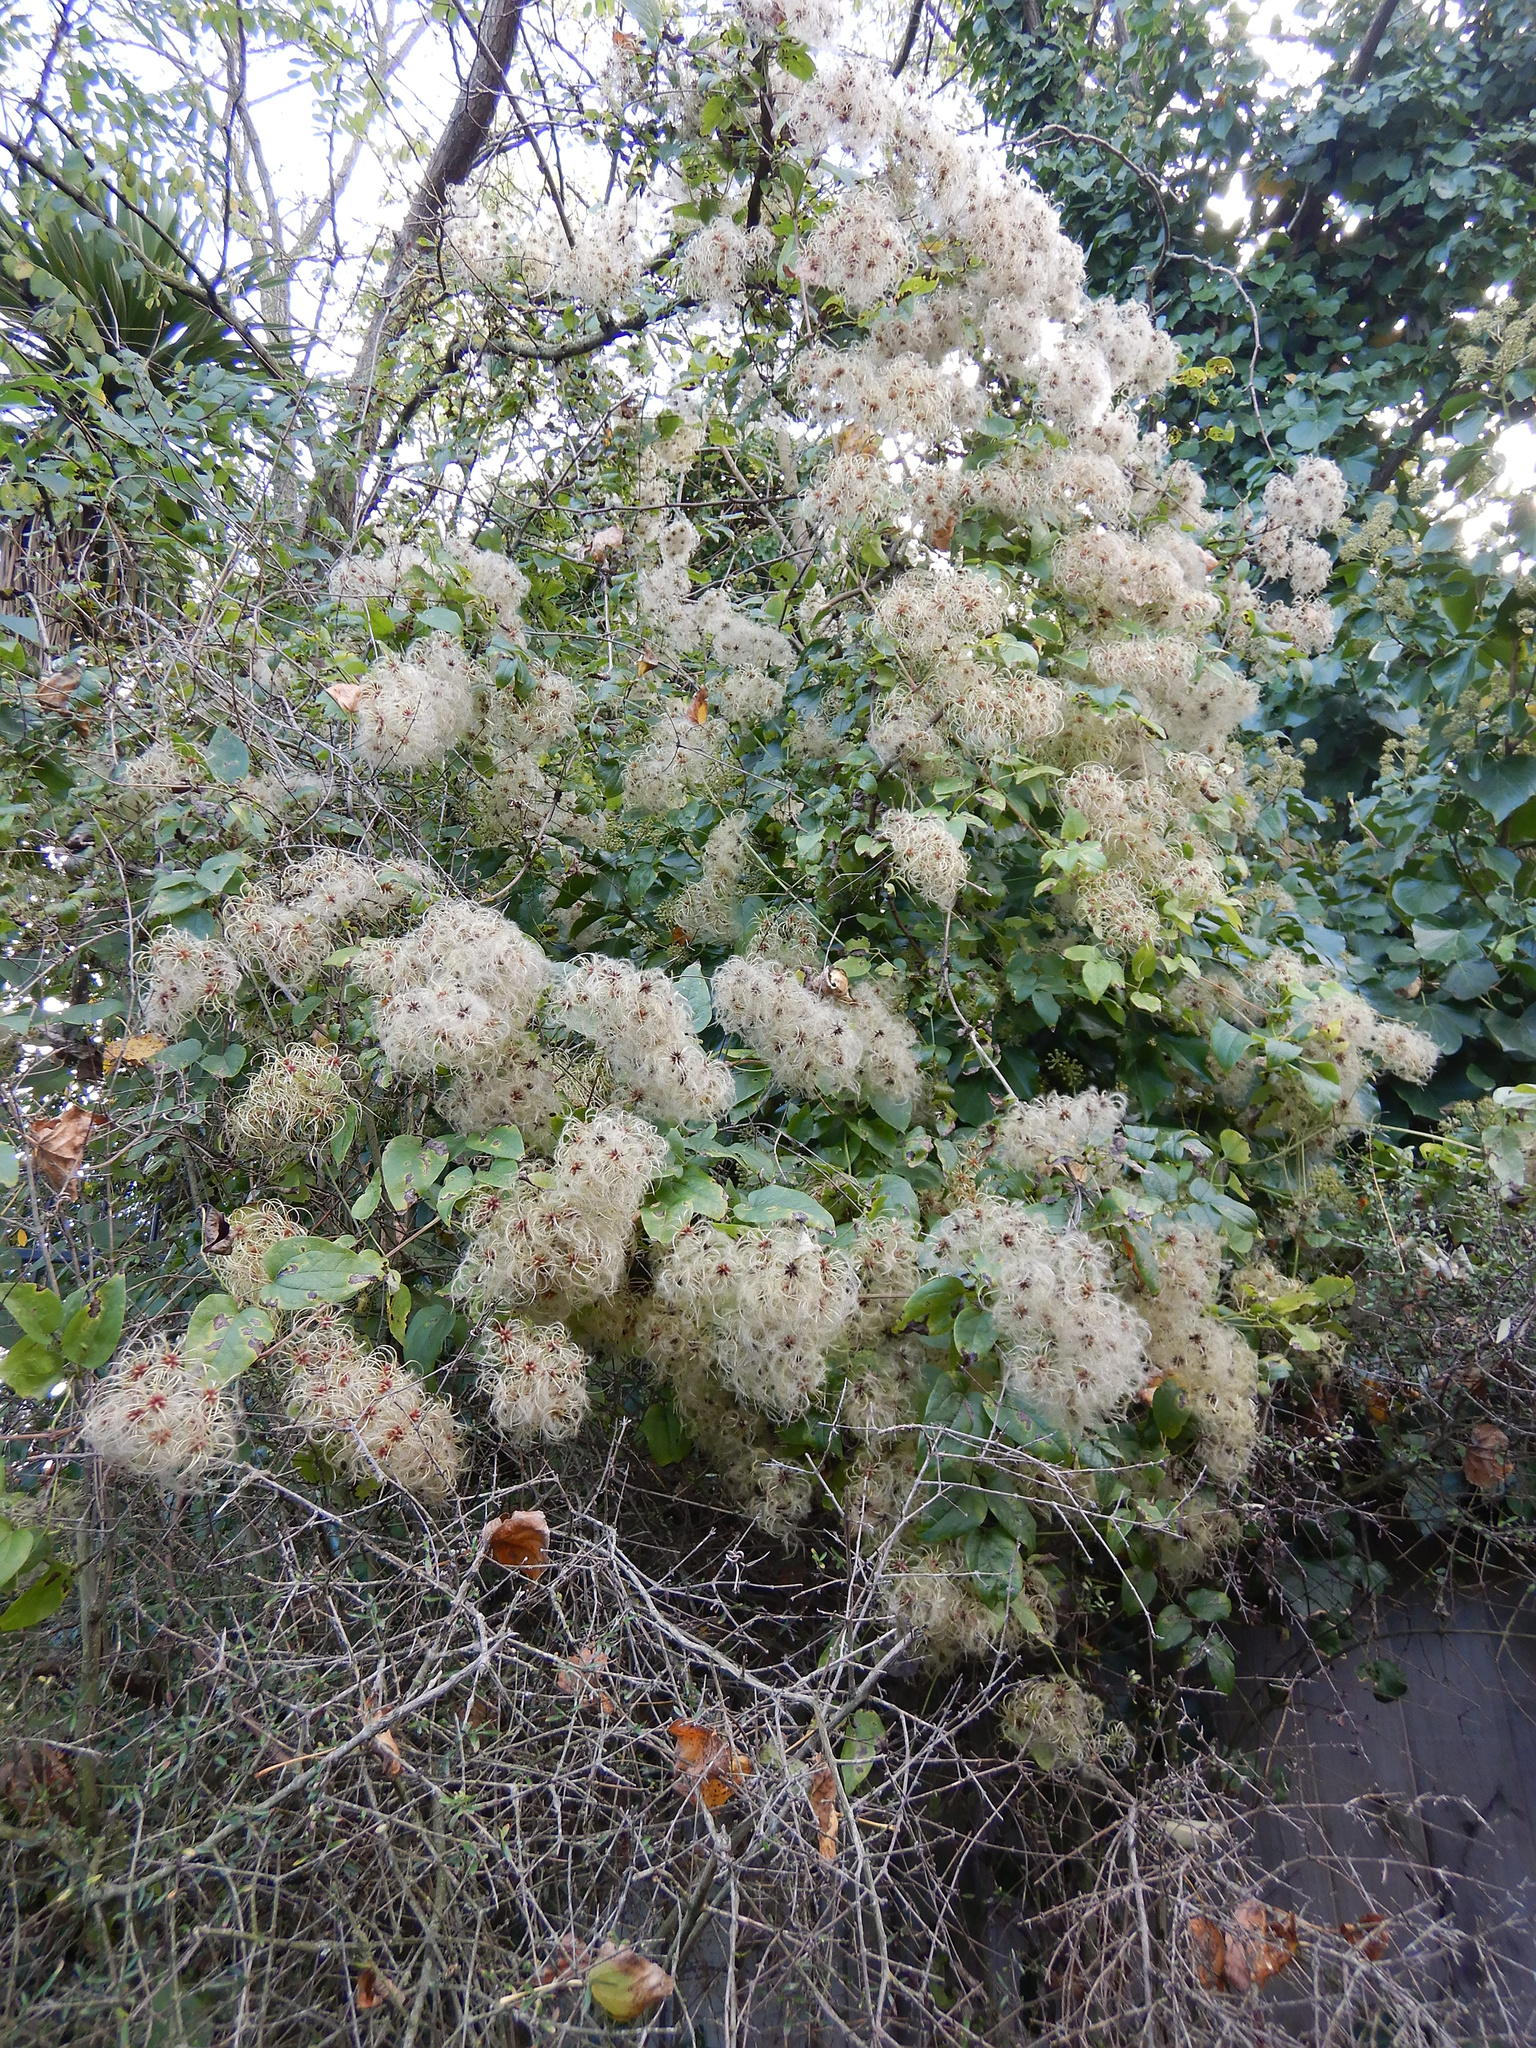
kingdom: Plantae
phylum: Tracheophyta
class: Magnoliopsida
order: Ranunculales
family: Ranunculaceae
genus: Clematis
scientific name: Clematis vitalba
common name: Evergreen clematis
